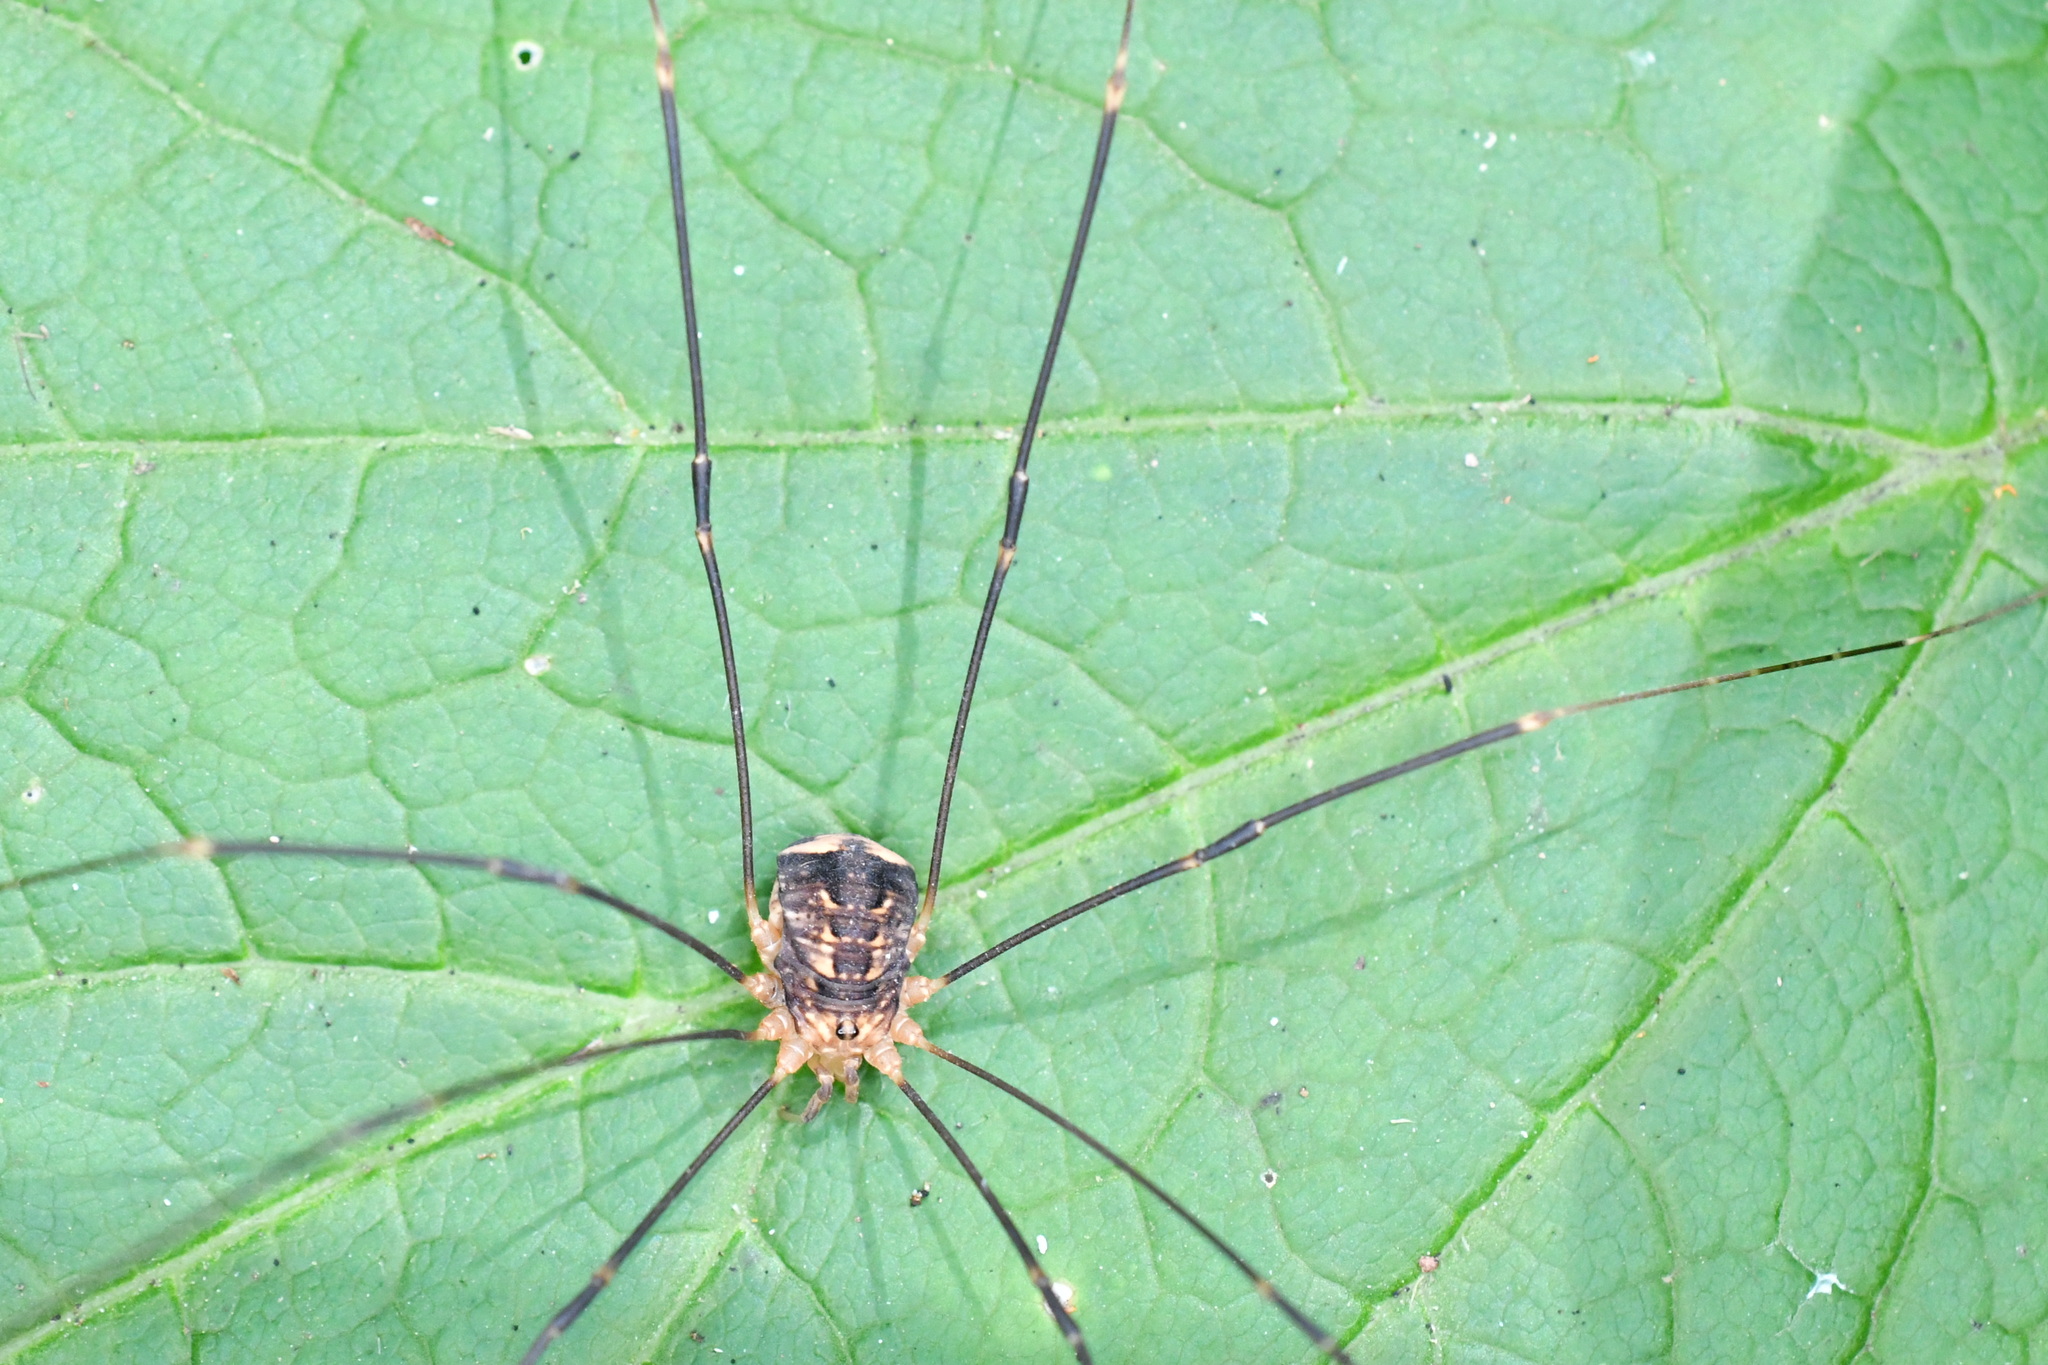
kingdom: Animalia
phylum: Arthropoda
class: Arachnida
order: Opiliones
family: Sclerosomatidae
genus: Nelima
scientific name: Nelima paessleri
